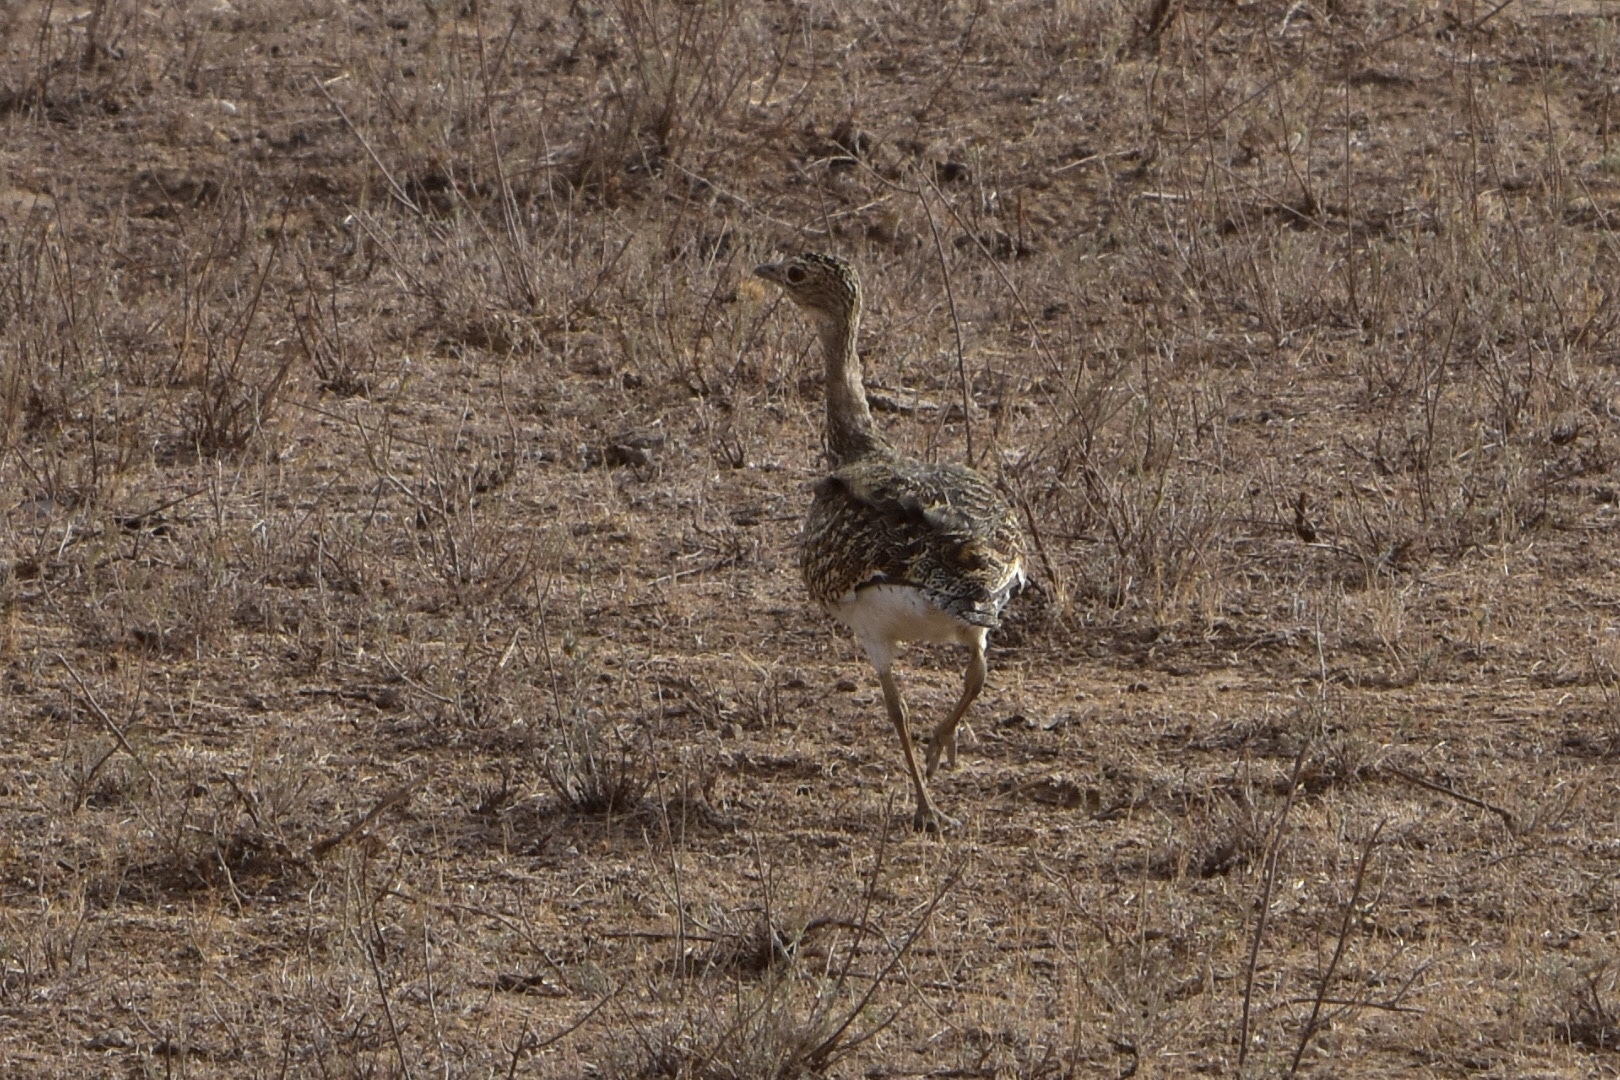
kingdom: Animalia
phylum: Chordata
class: Aves
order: Otidiformes
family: Otididae
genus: Tetrax
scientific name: Tetrax tetrax
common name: Little bustard
